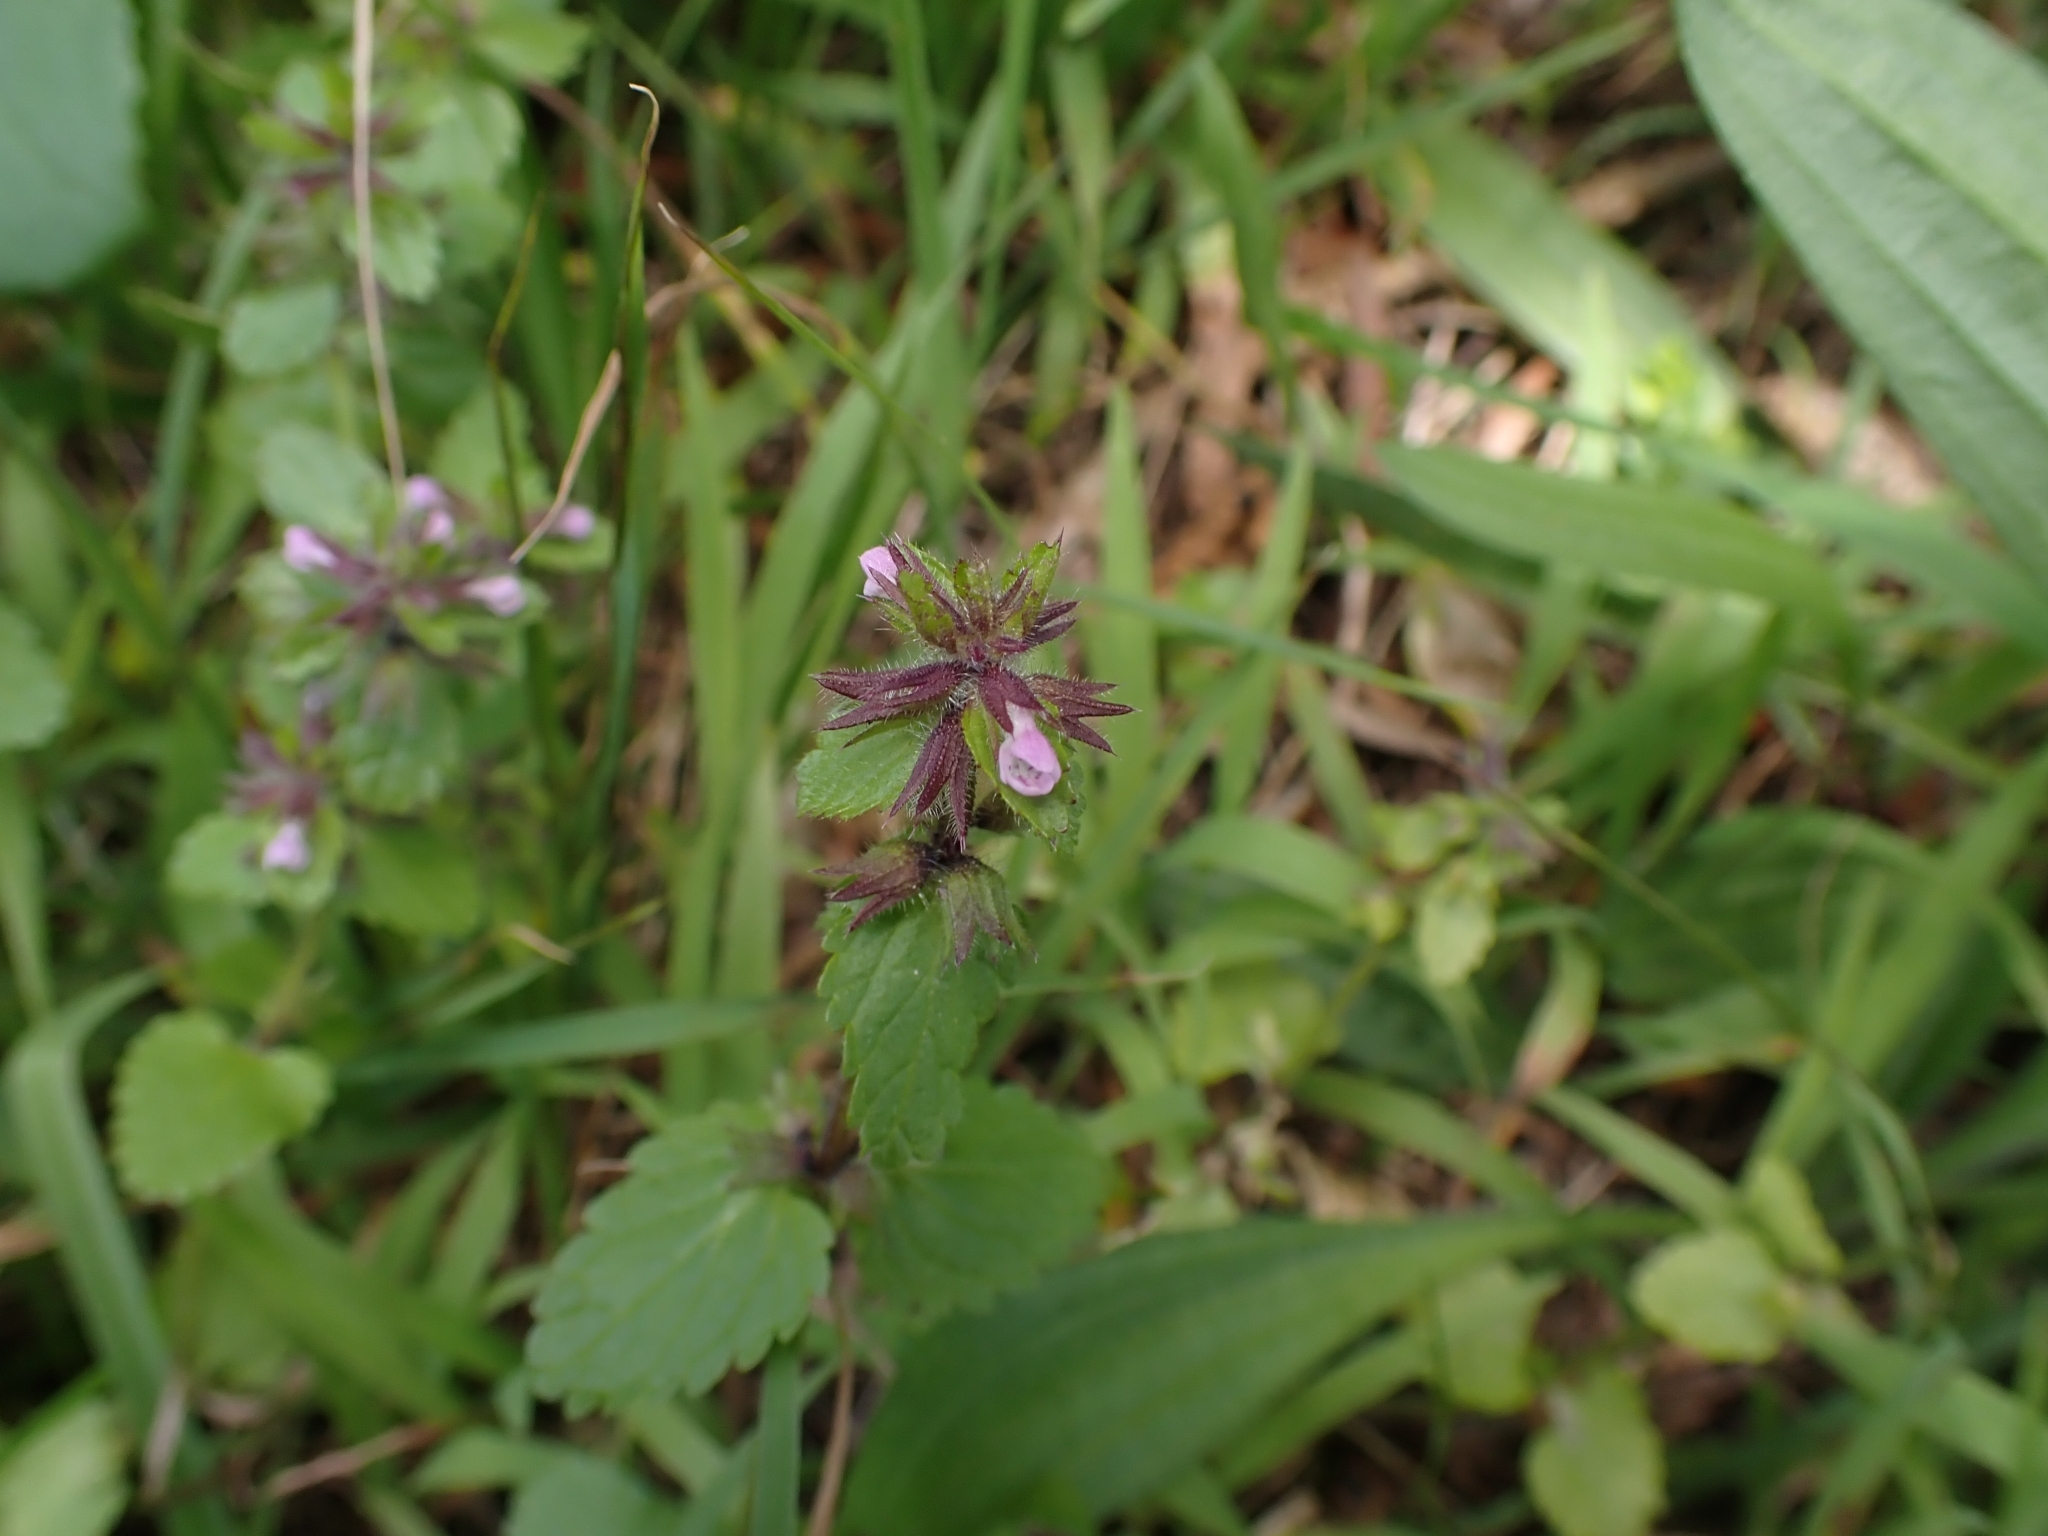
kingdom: Plantae
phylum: Tracheophyta
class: Magnoliopsida
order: Lamiales
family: Lamiaceae
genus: Stachys
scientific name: Stachys arvensis
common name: Field woundwort
